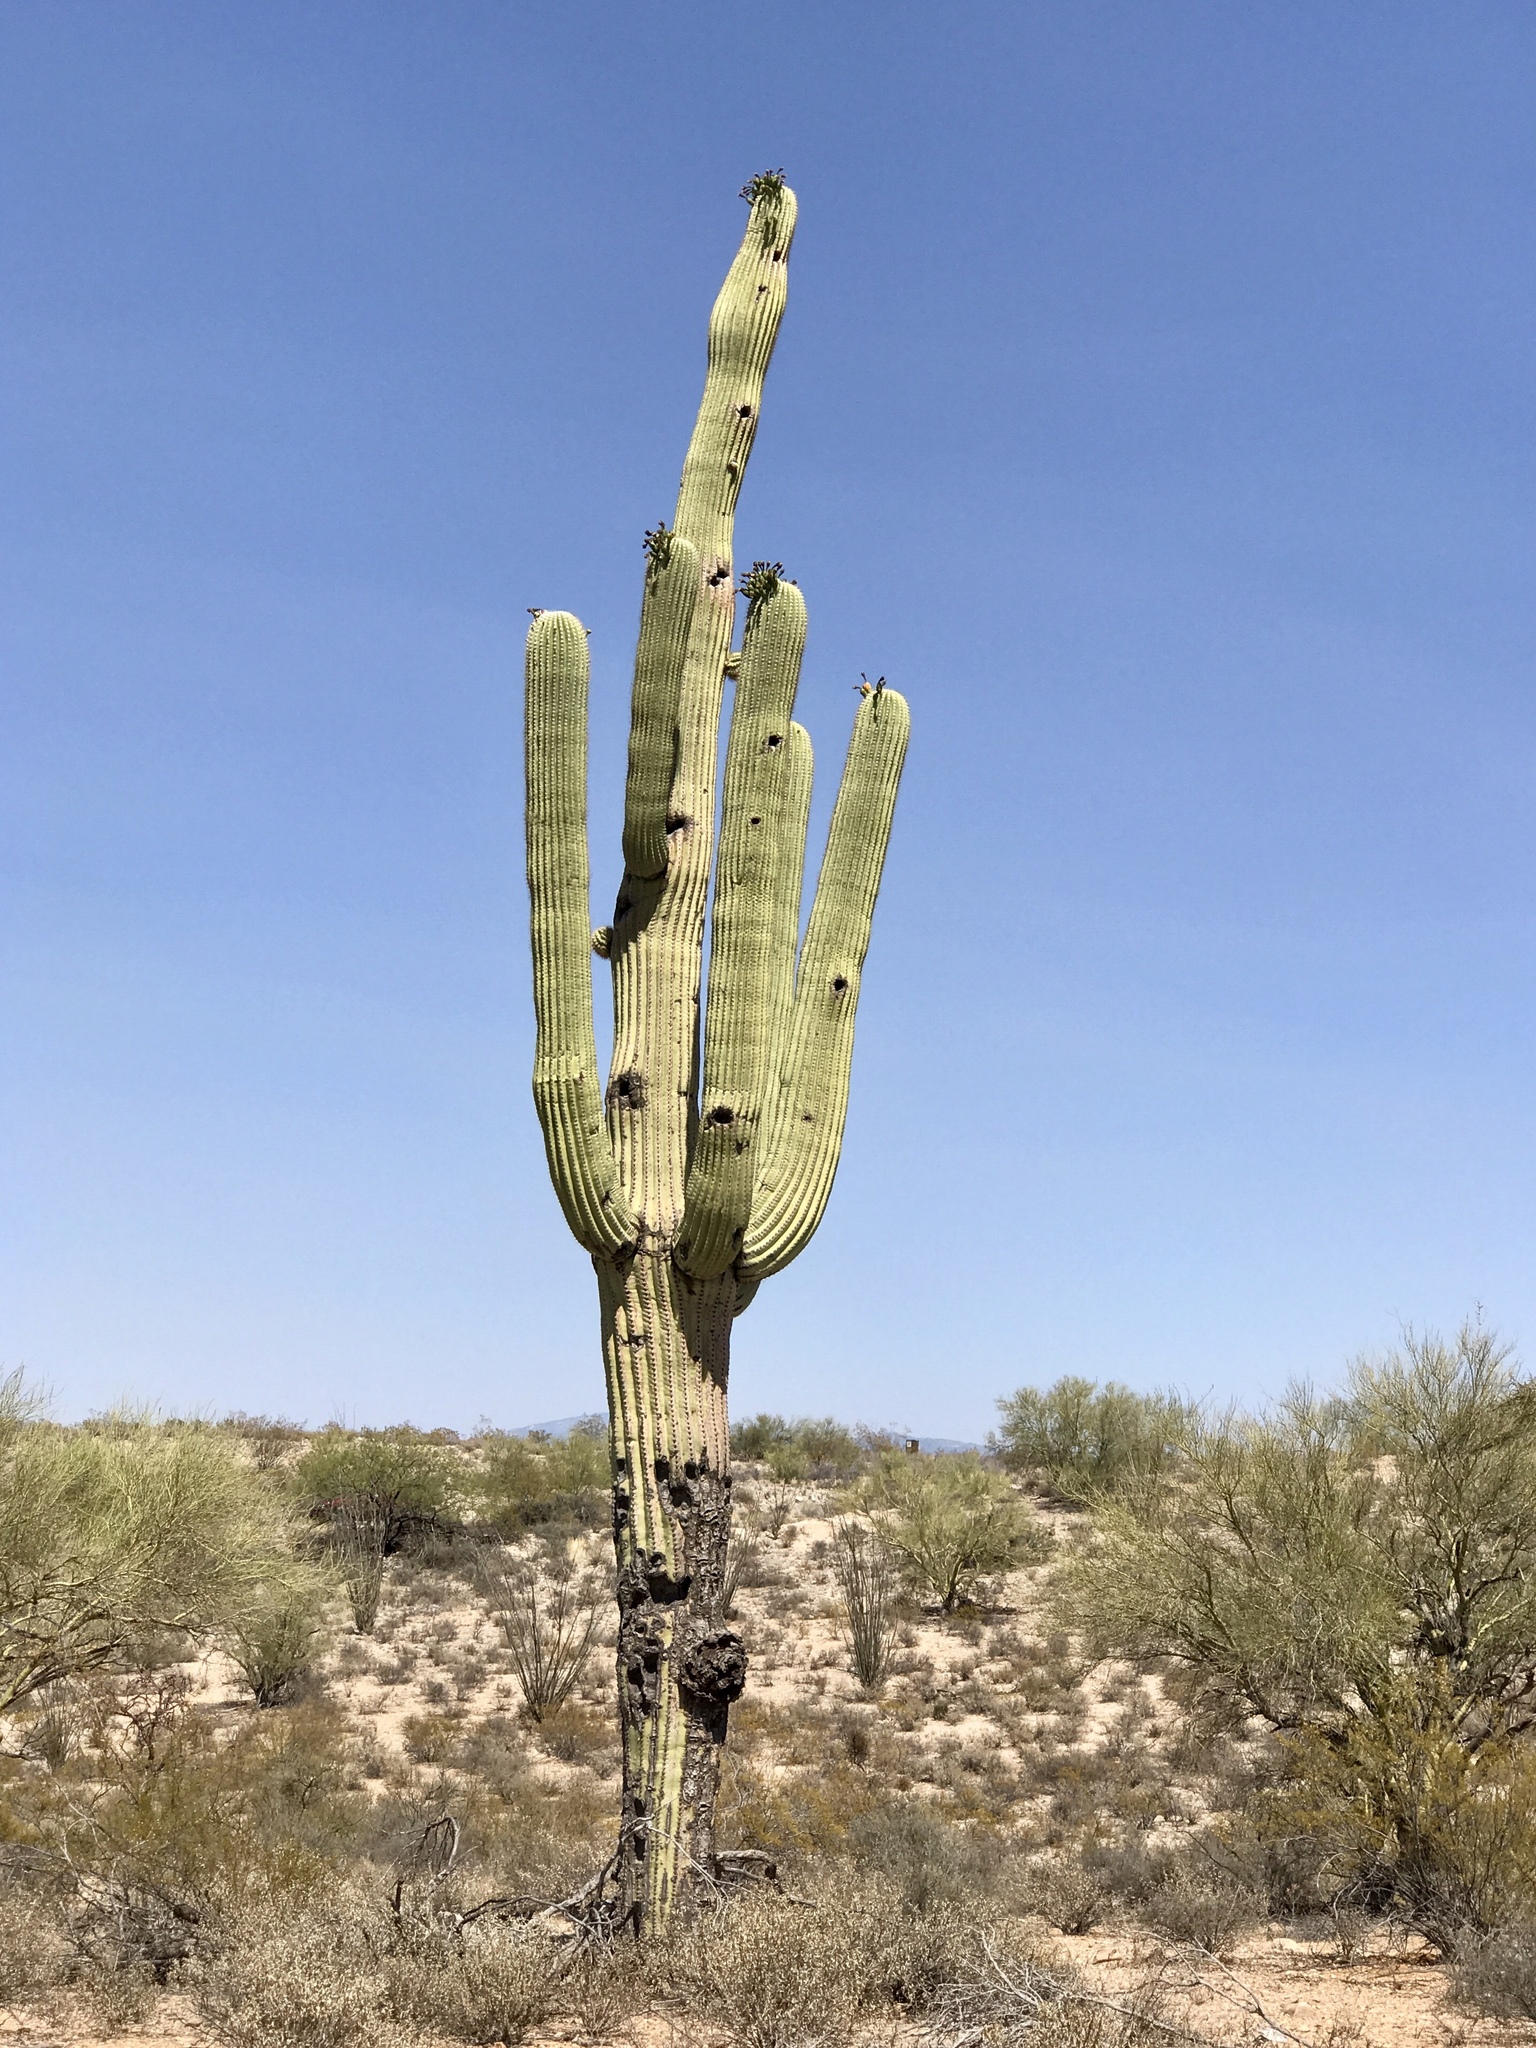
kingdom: Plantae
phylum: Tracheophyta
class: Magnoliopsida
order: Caryophyllales
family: Cactaceae
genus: Carnegiea
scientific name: Carnegiea gigantea
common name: Saguaro
